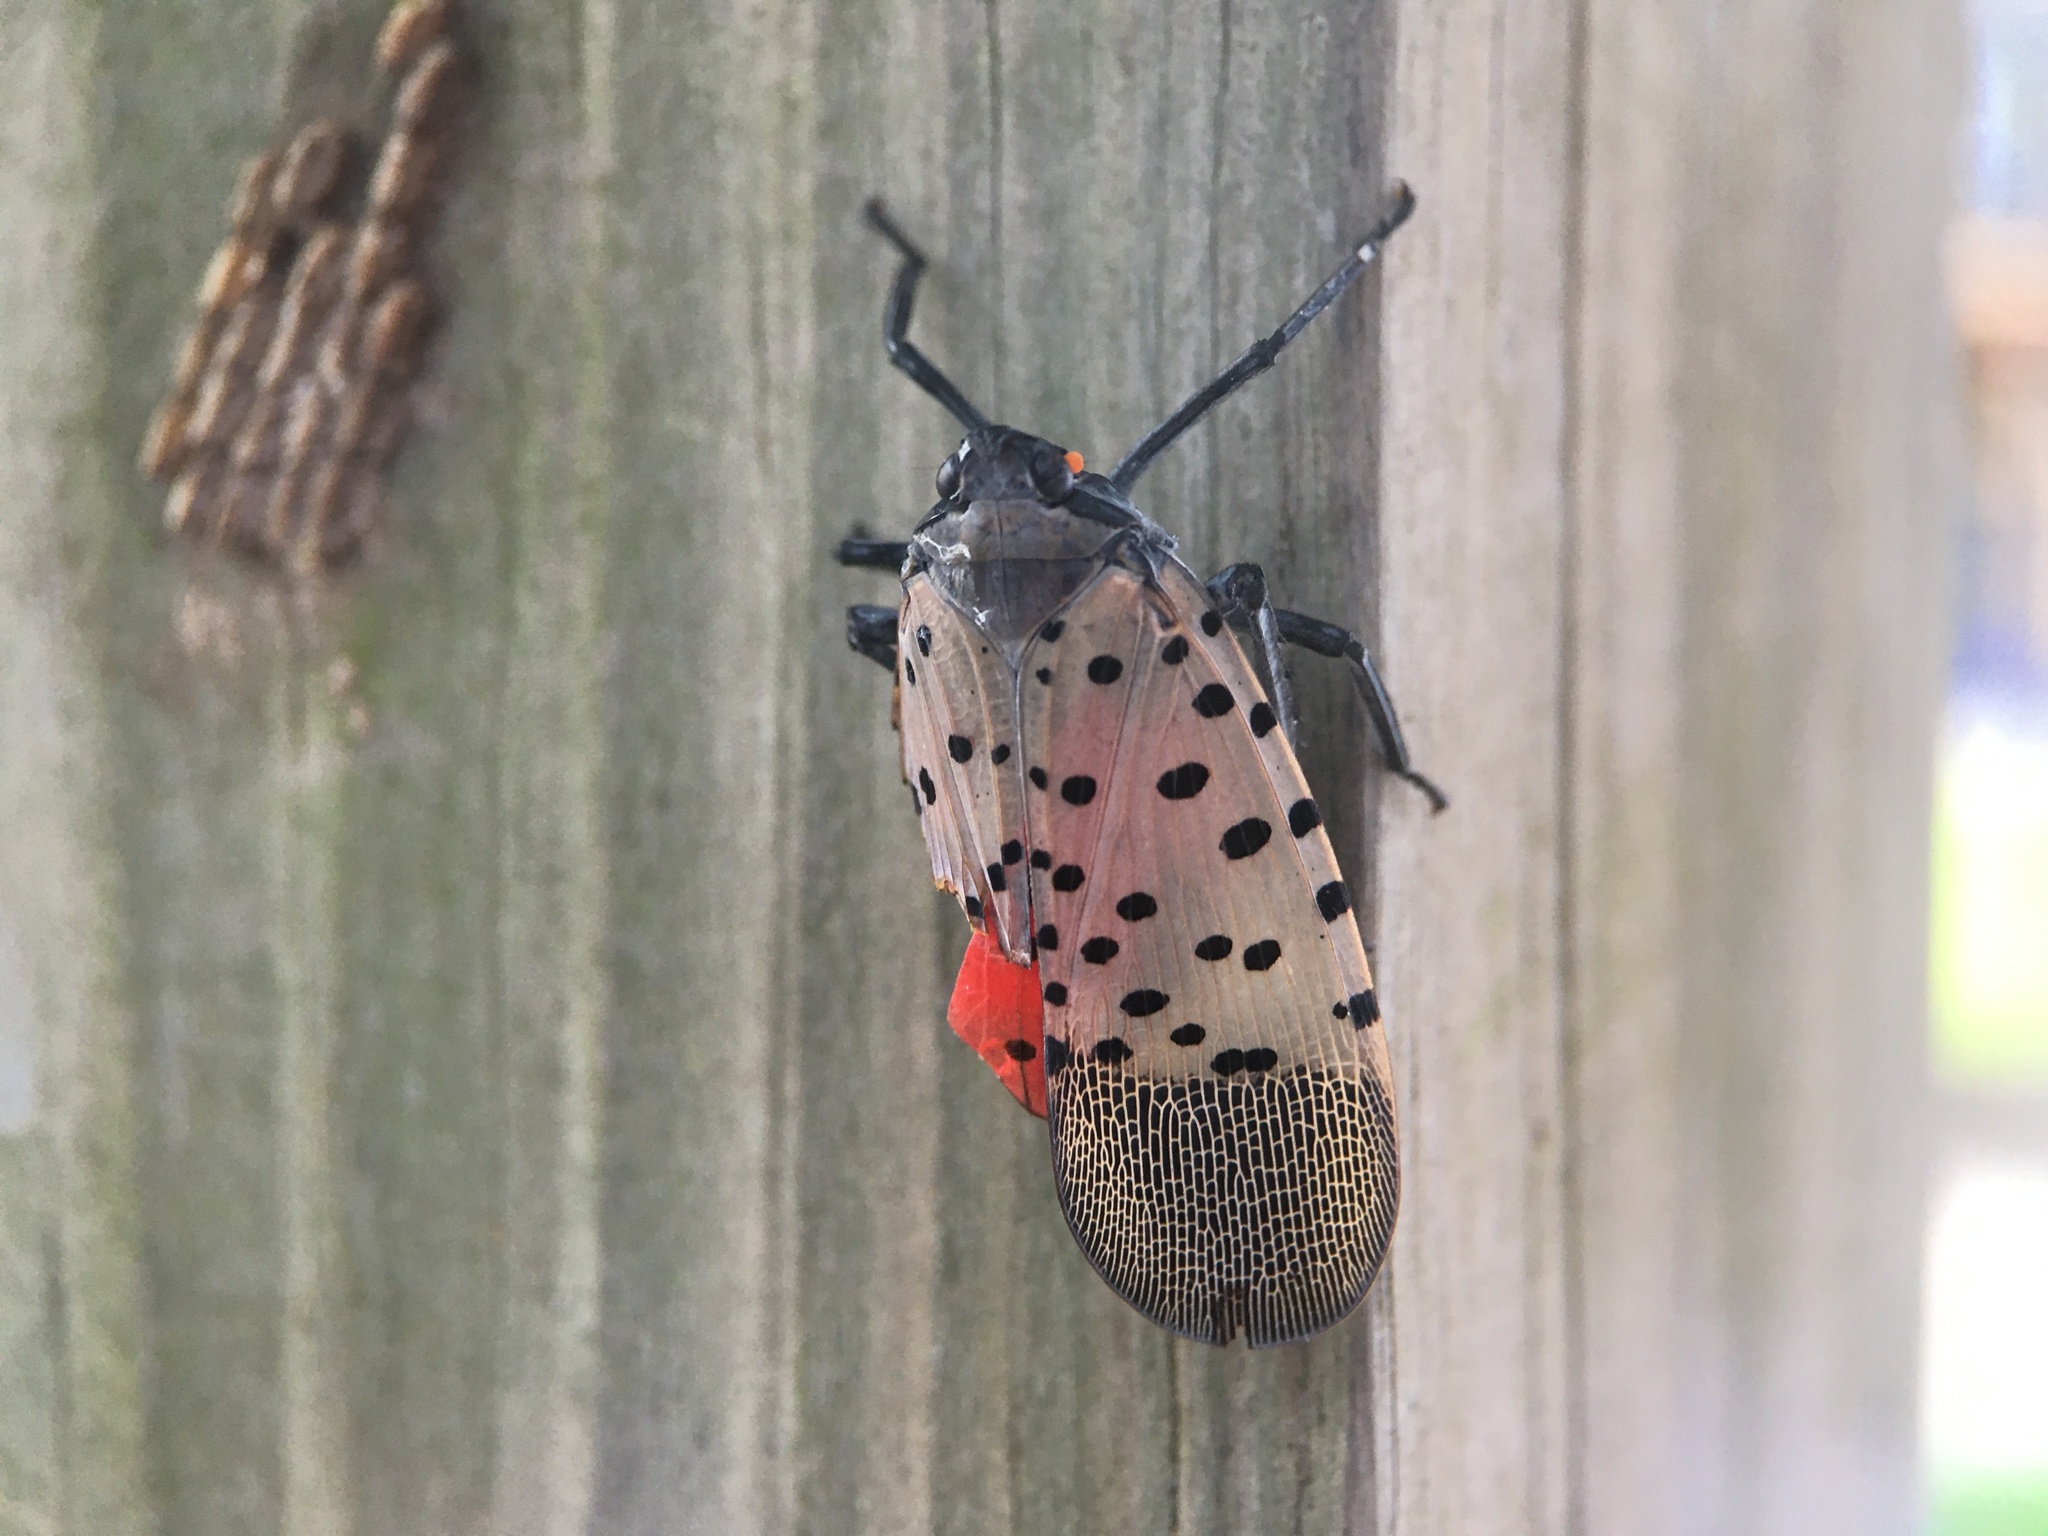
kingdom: Animalia
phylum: Arthropoda
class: Insecta
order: Hemiptera
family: Fulgoridae
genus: Lycorma
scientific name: Lycorma delicatula
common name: Spotted lanternfly
